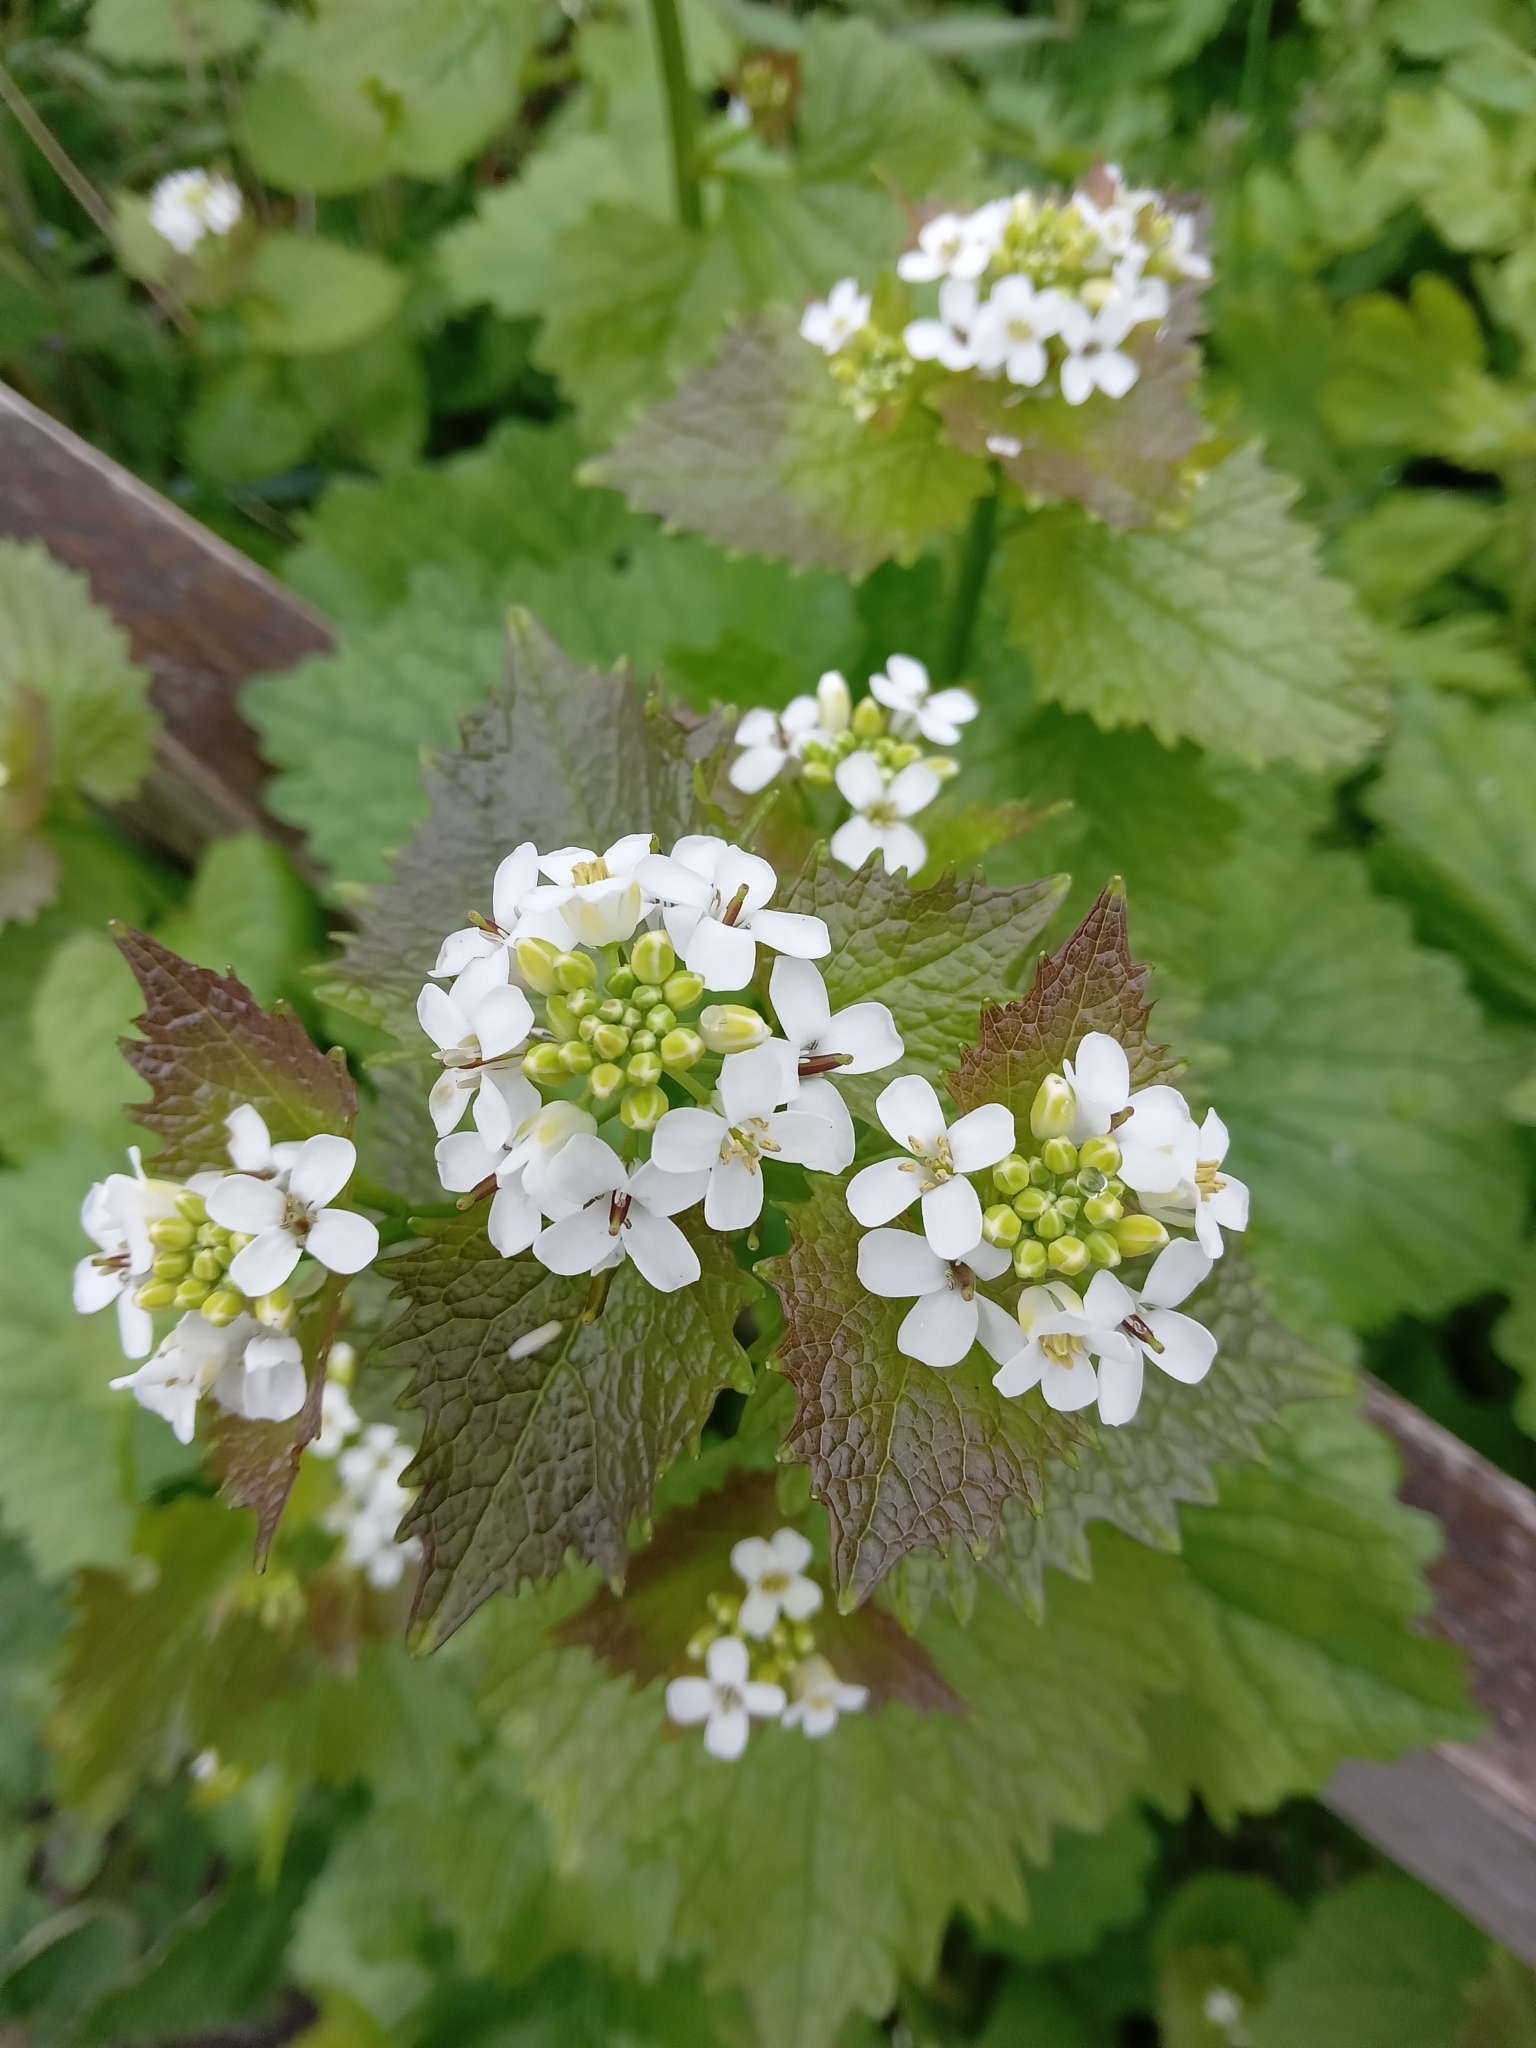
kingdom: Plantae
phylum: Tracheophyta
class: Magnoliopsida
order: Brassicales
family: Brassicaceae
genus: Alliaria
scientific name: Alliaria petiolata
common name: Garlic mustard
